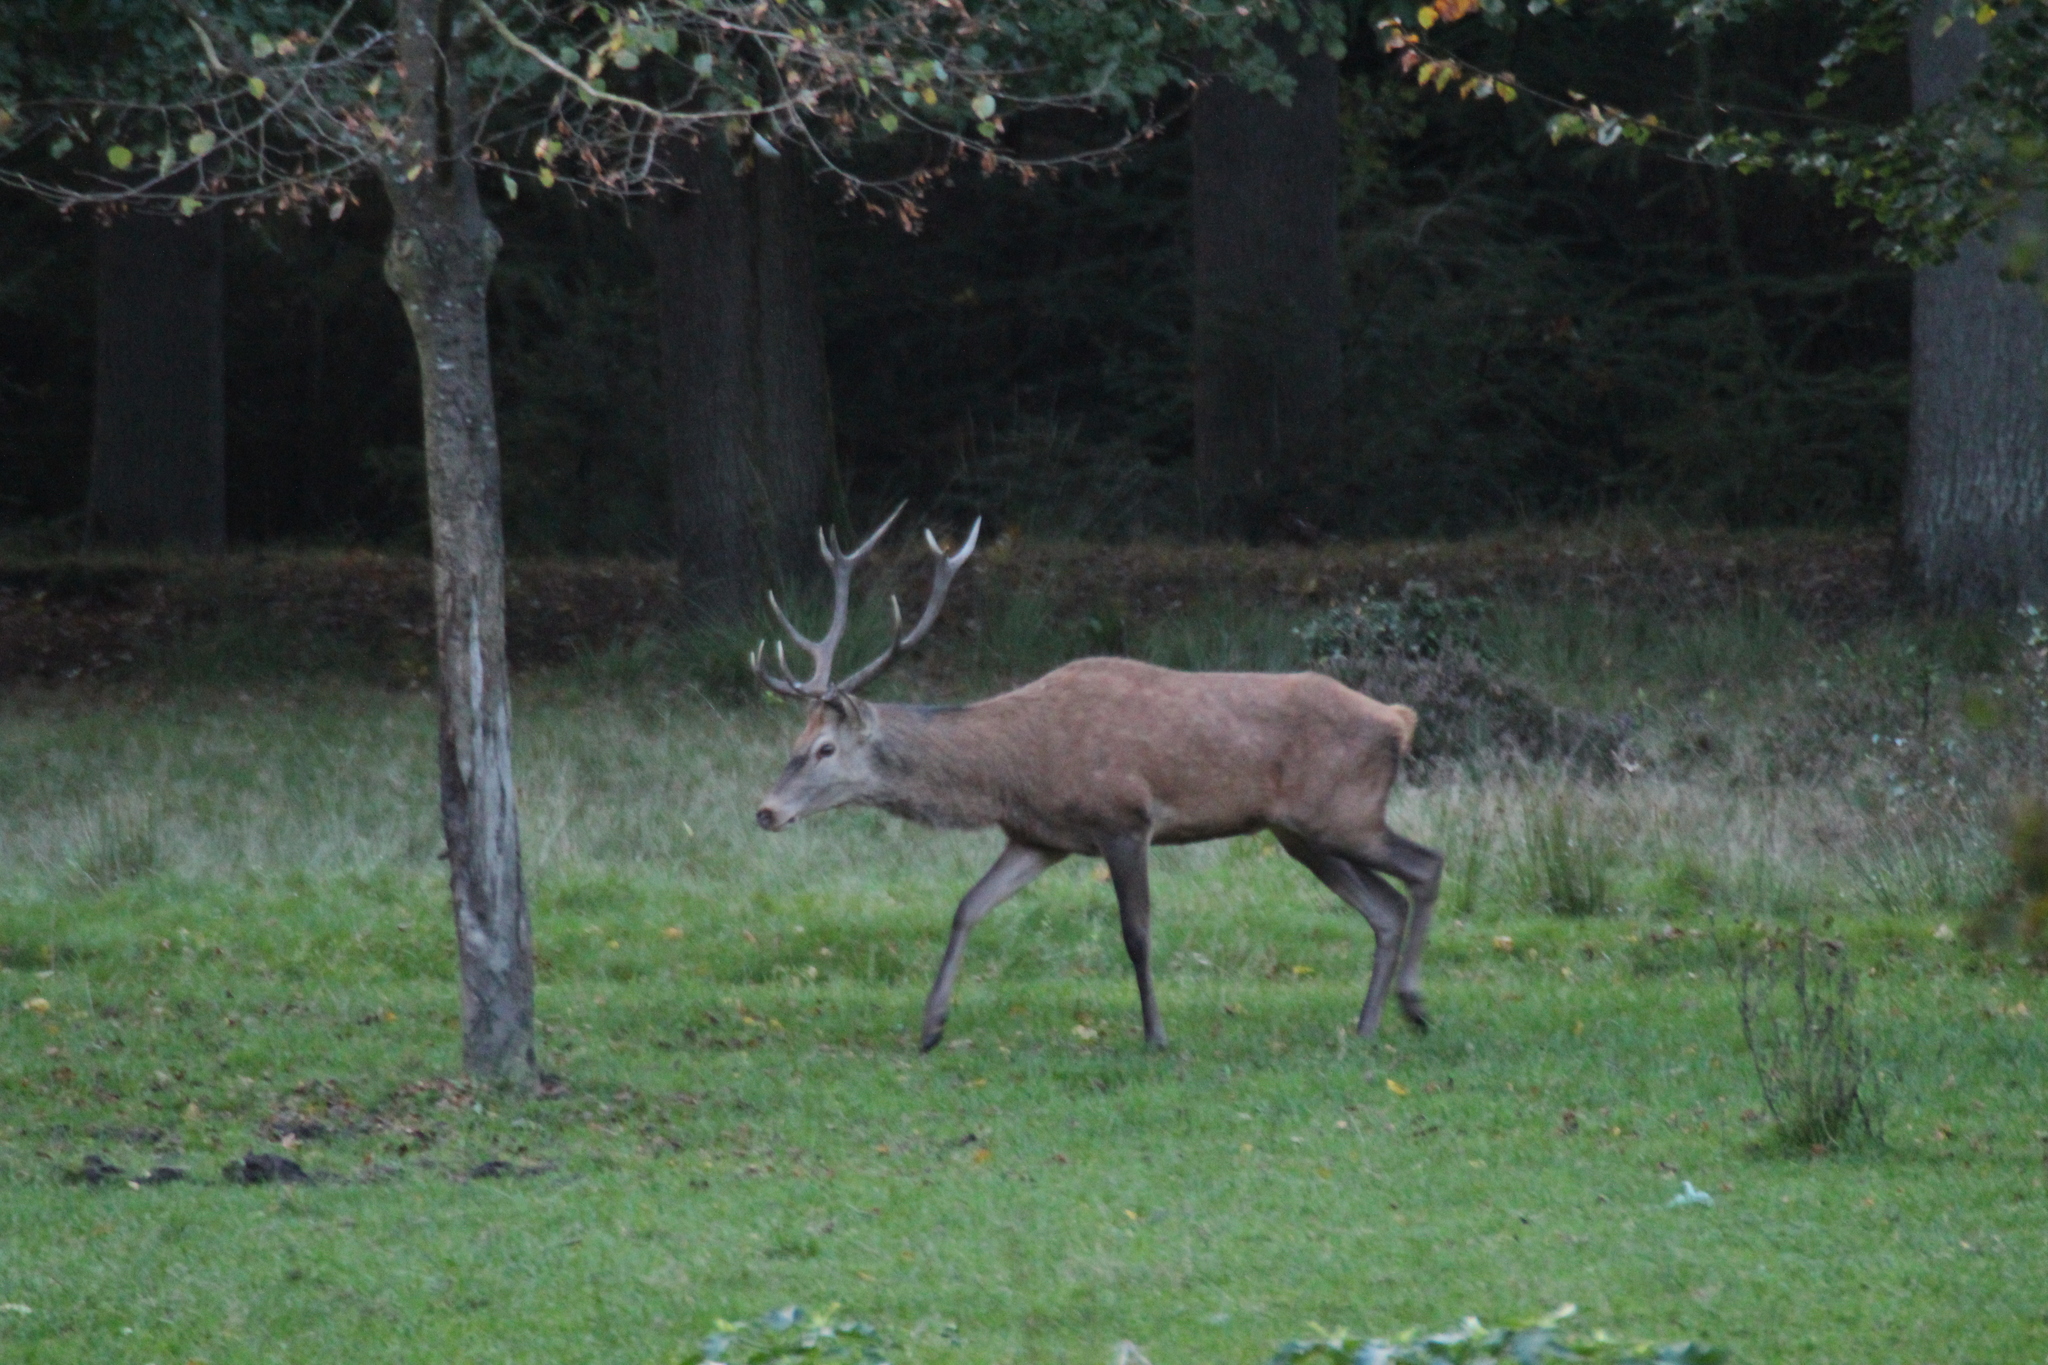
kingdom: Animalia
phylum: Chordata
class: Mammalia
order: Artiodactyla
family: Cervidae
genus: Cervus
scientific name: Cervus elaphus
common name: Red deer
